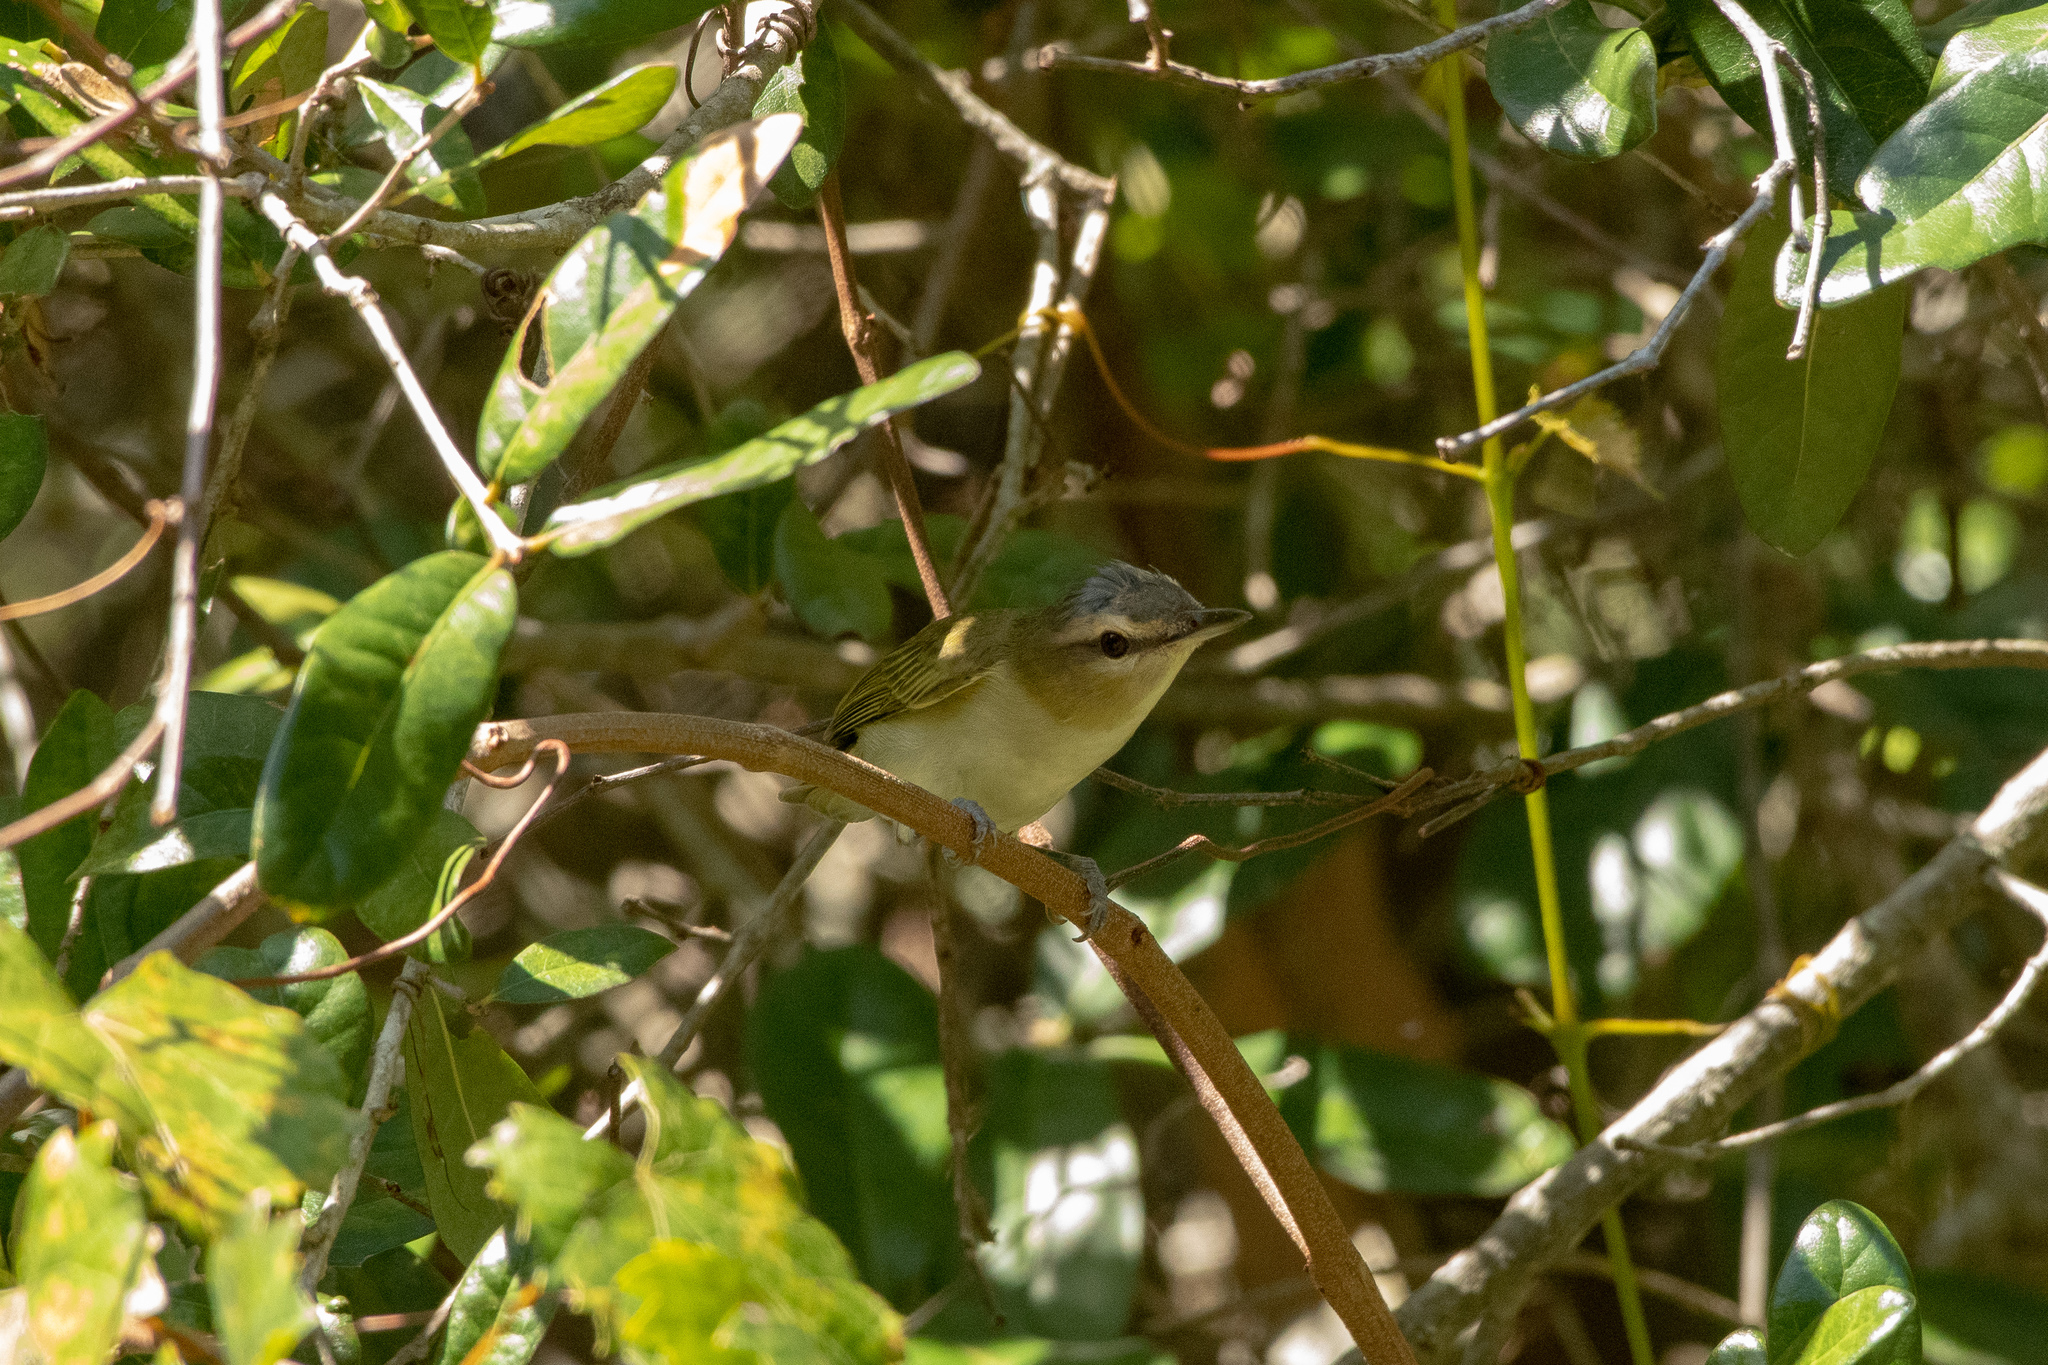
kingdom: Animalia
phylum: Chordata
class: Aves
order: Passeriformes
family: Vireonidae
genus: Vireo
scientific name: Vireo olivaceus
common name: Red-eyed vireo
